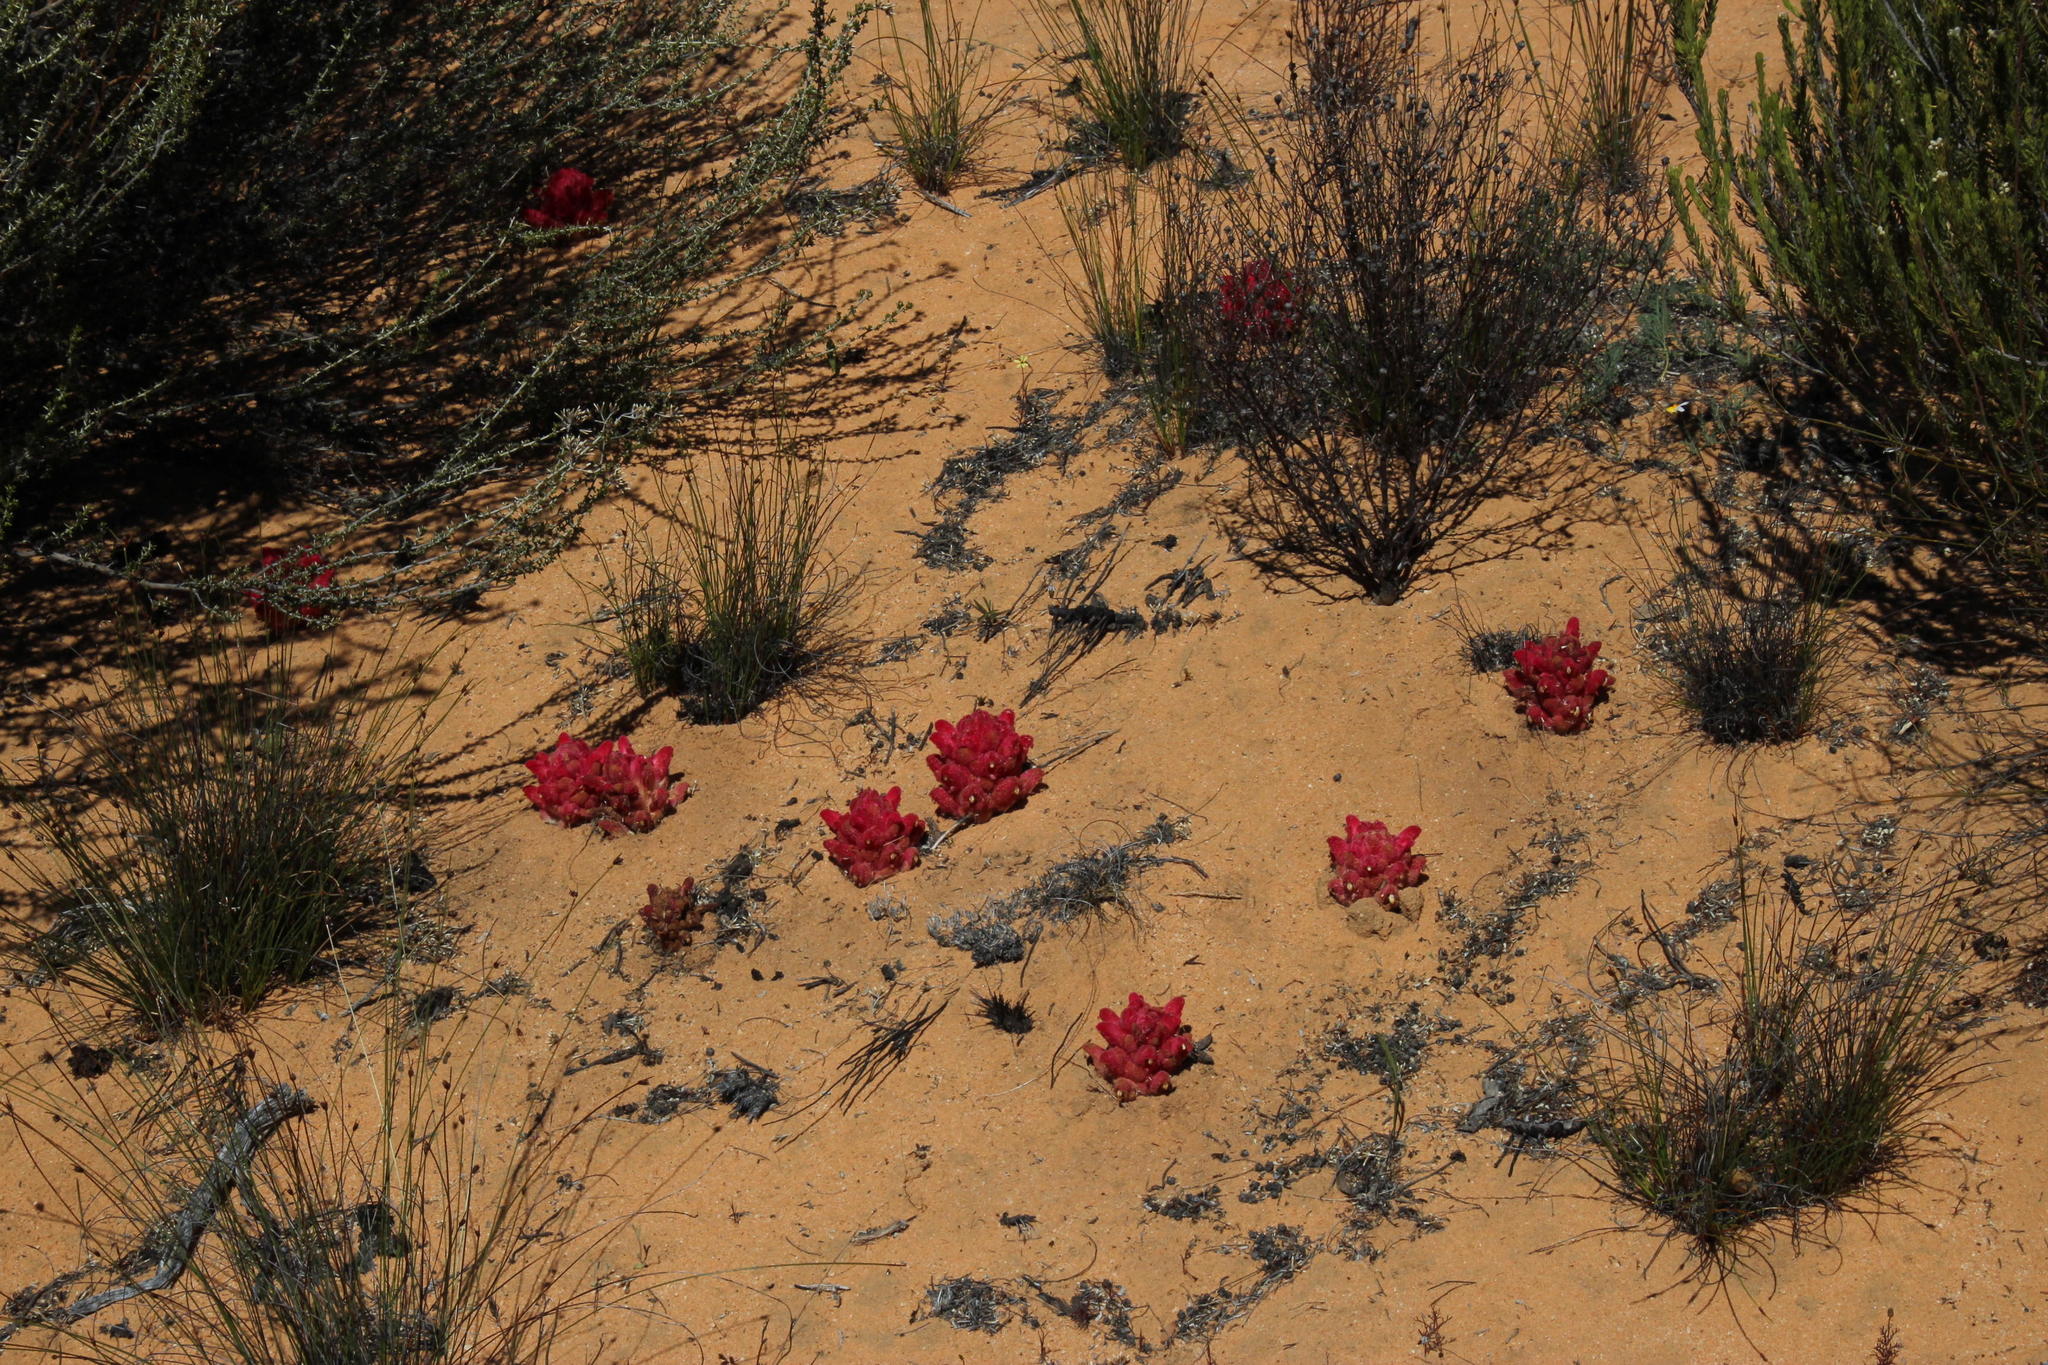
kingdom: Plantae
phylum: Tracheophyta
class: Magnoliopsida
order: Lamiales
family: Orobanchaceae
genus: Hyobanche
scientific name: Hyobanche sanguinea
